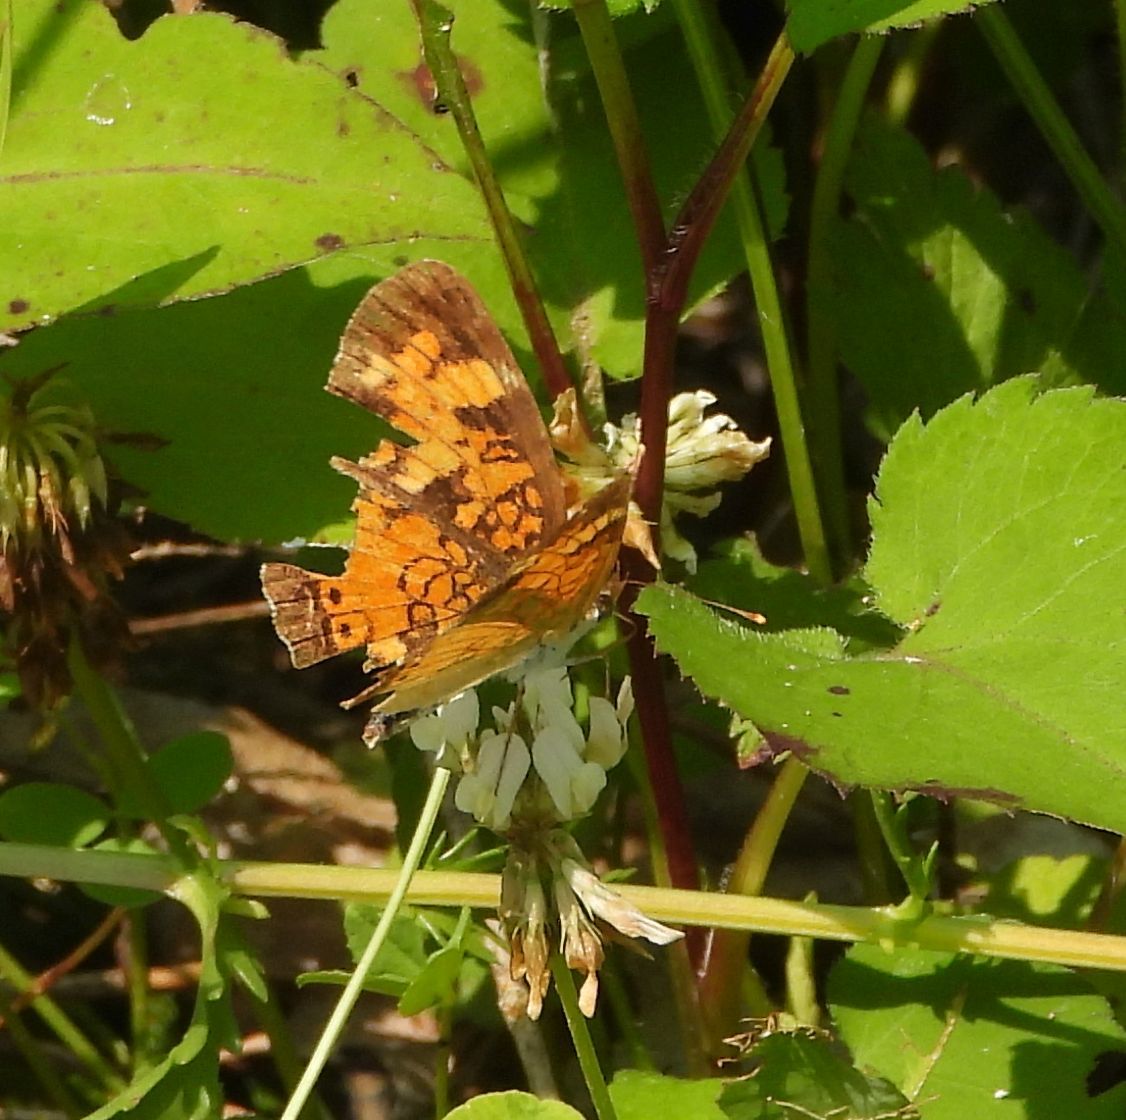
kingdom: Animalia
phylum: Arthropoda
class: Insecta
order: Lepidoptera
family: Nymphalidae
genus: Phyciodes
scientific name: Phyciodes tharos
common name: Pearl crescent
